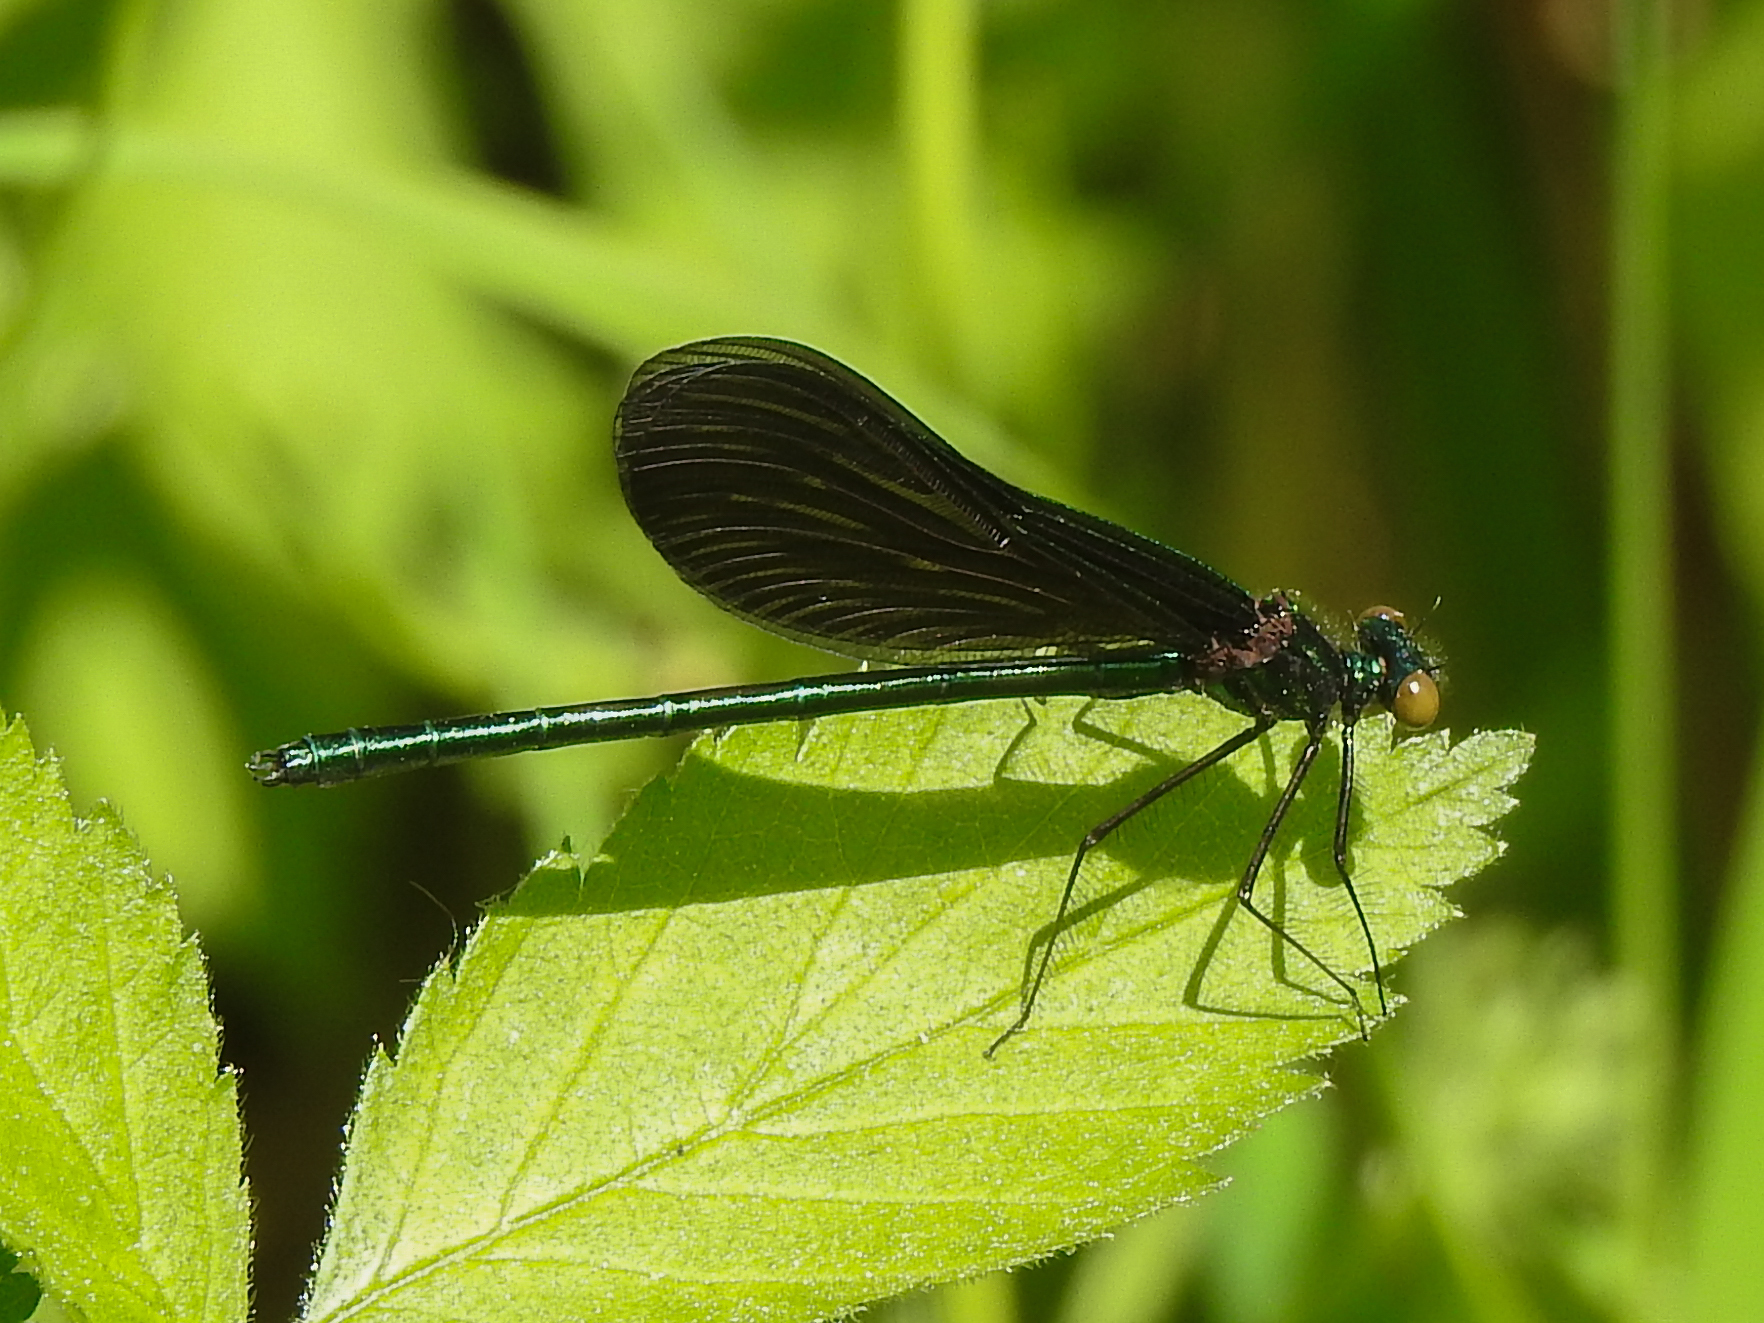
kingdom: Animalia
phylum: Arthropoda
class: Insecta
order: Odonata
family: Calopterygidae
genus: Calopteryx
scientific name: Calopteryx maculata
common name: Ebony jewelwing
